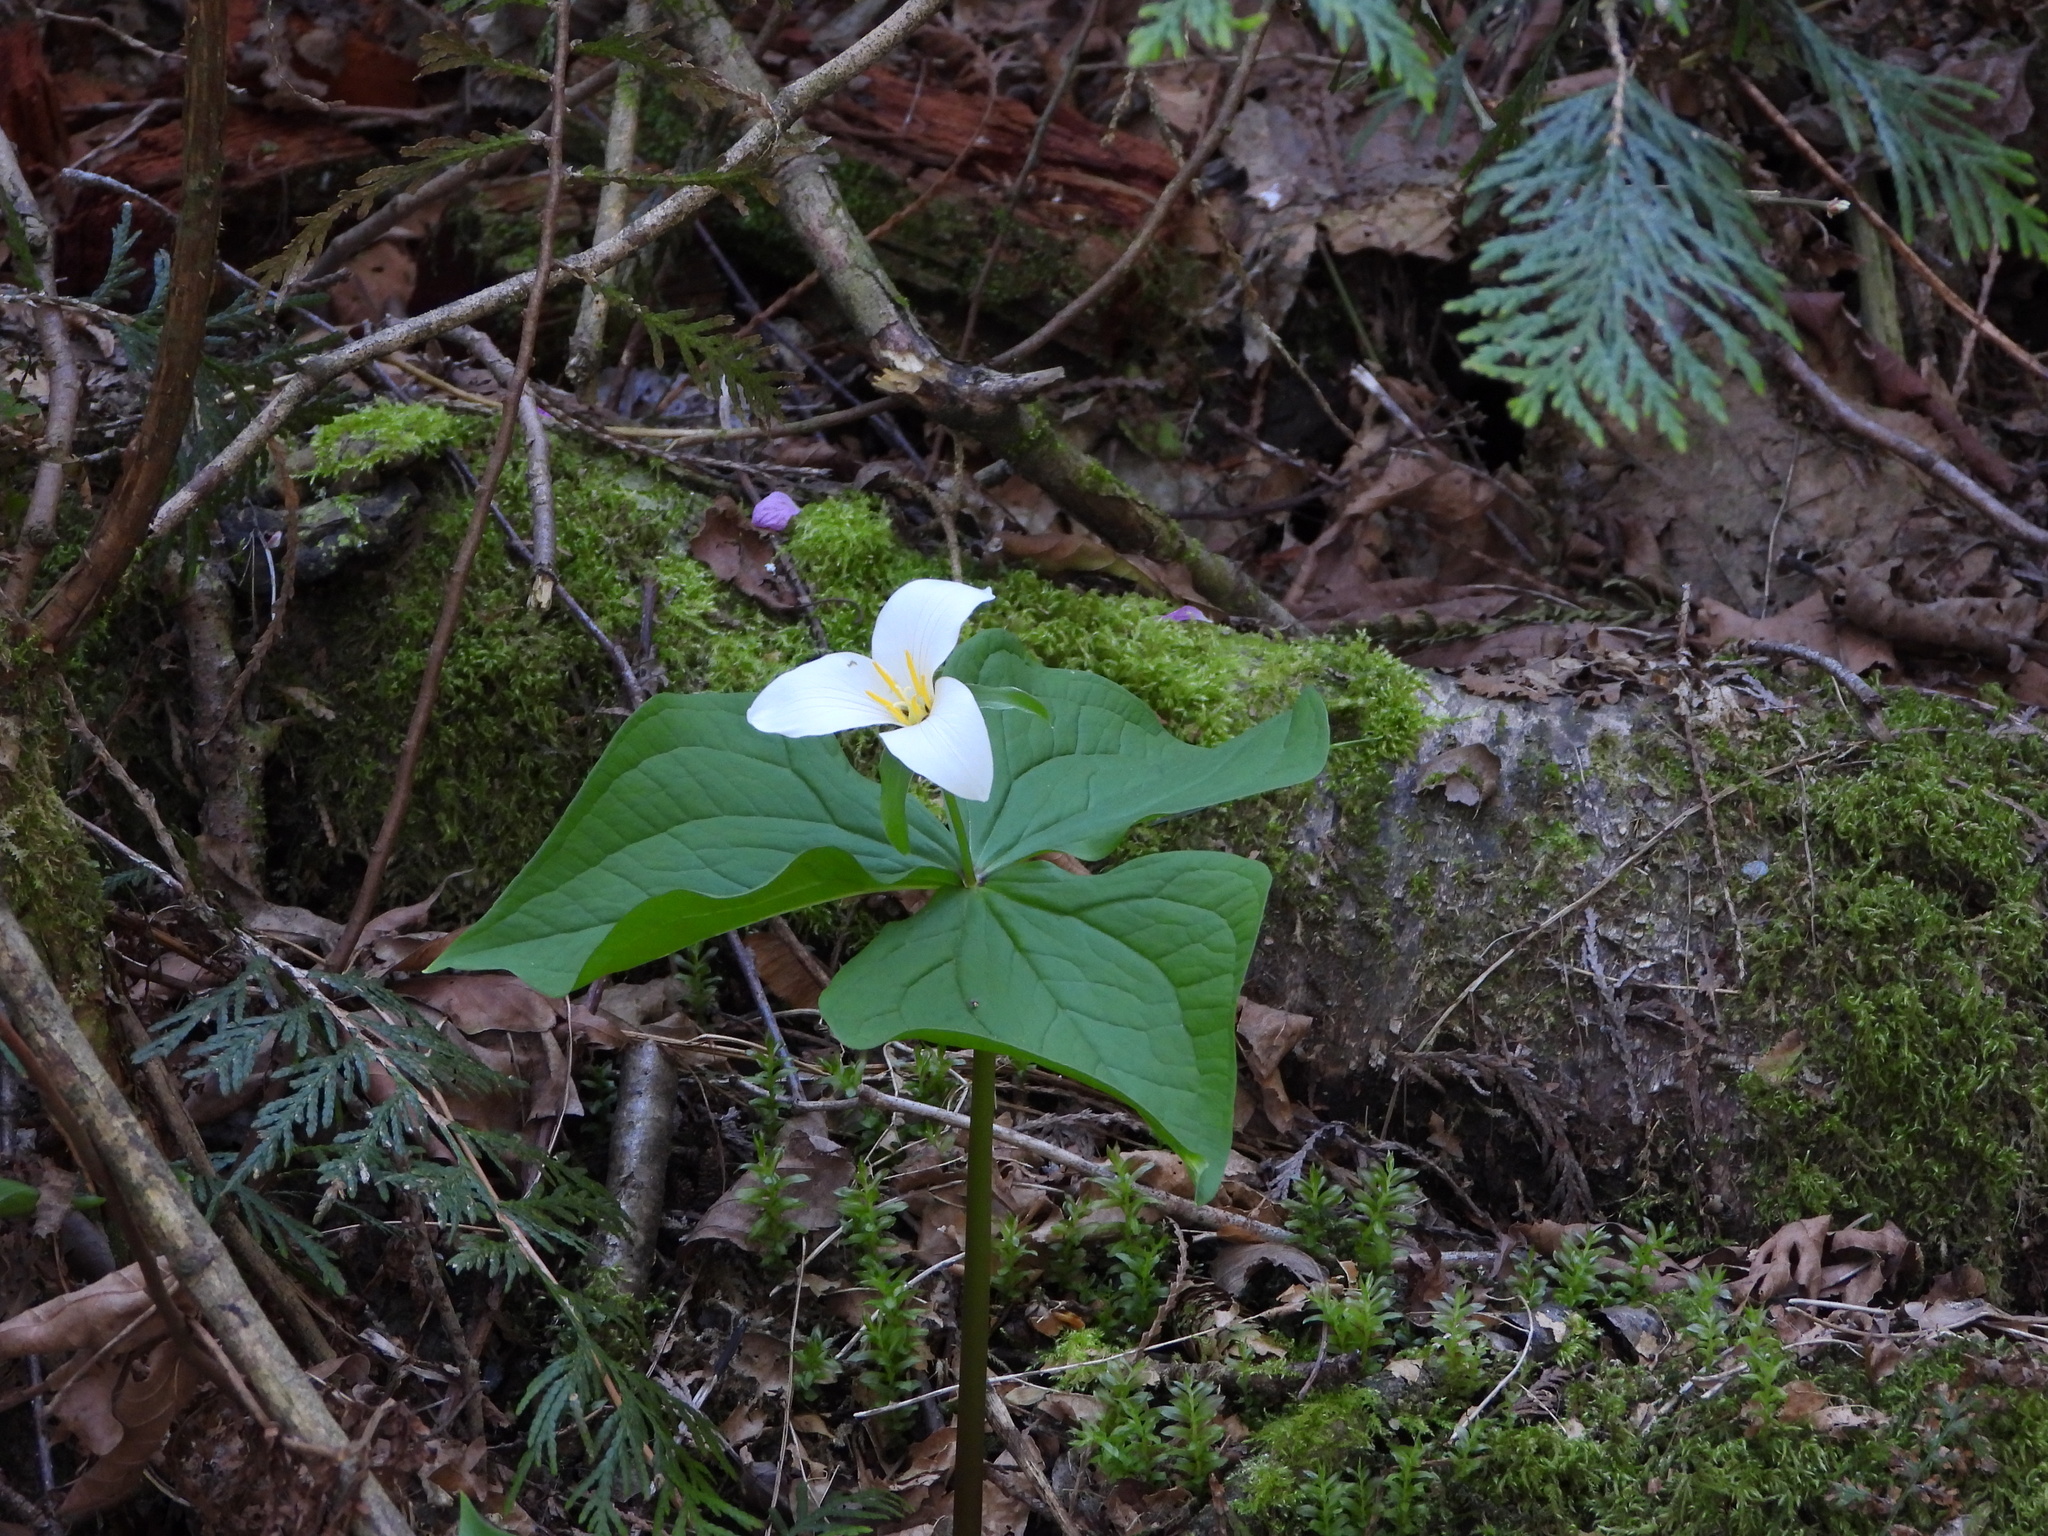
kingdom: Plantae
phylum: Tracheophyta
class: Liliopsida
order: Liliales
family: Melanthiaceae
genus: Trillium
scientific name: Trillium ovatum
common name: Pacific trillium
